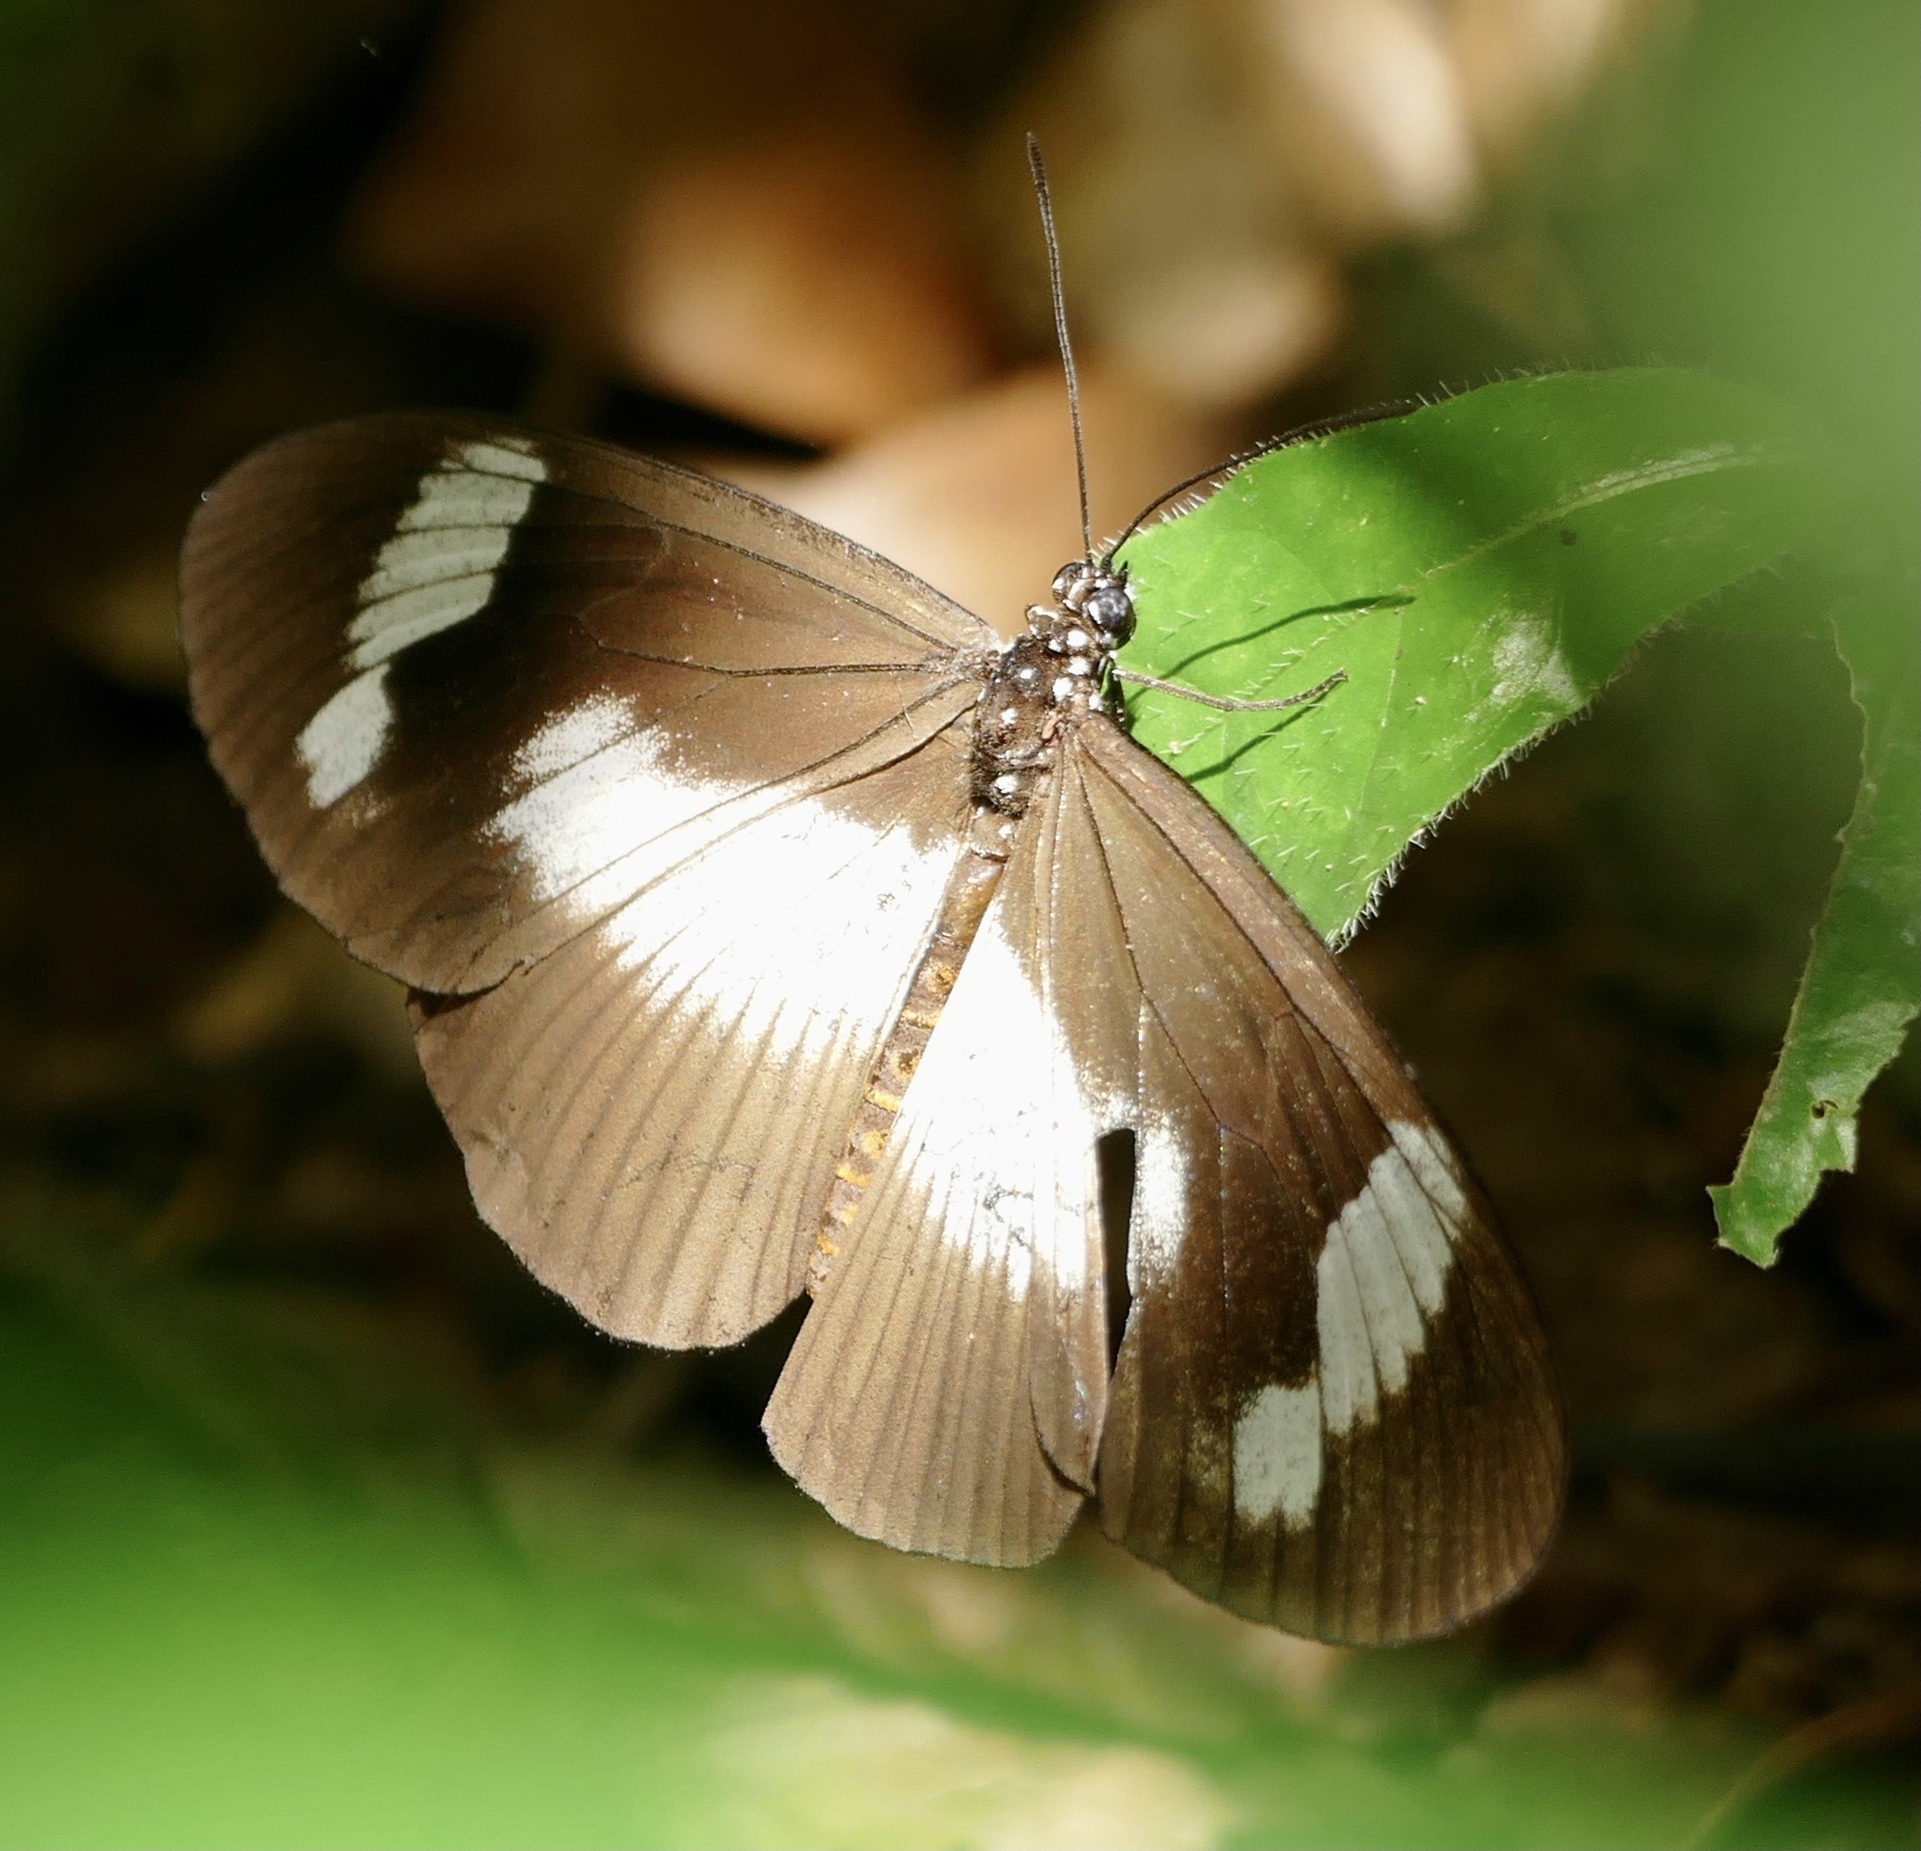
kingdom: Animalia
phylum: Arthropoda
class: Insecta
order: Lepidoptera
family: Nymphalidae
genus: Acraea
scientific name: Acraea Bematistes epaea
